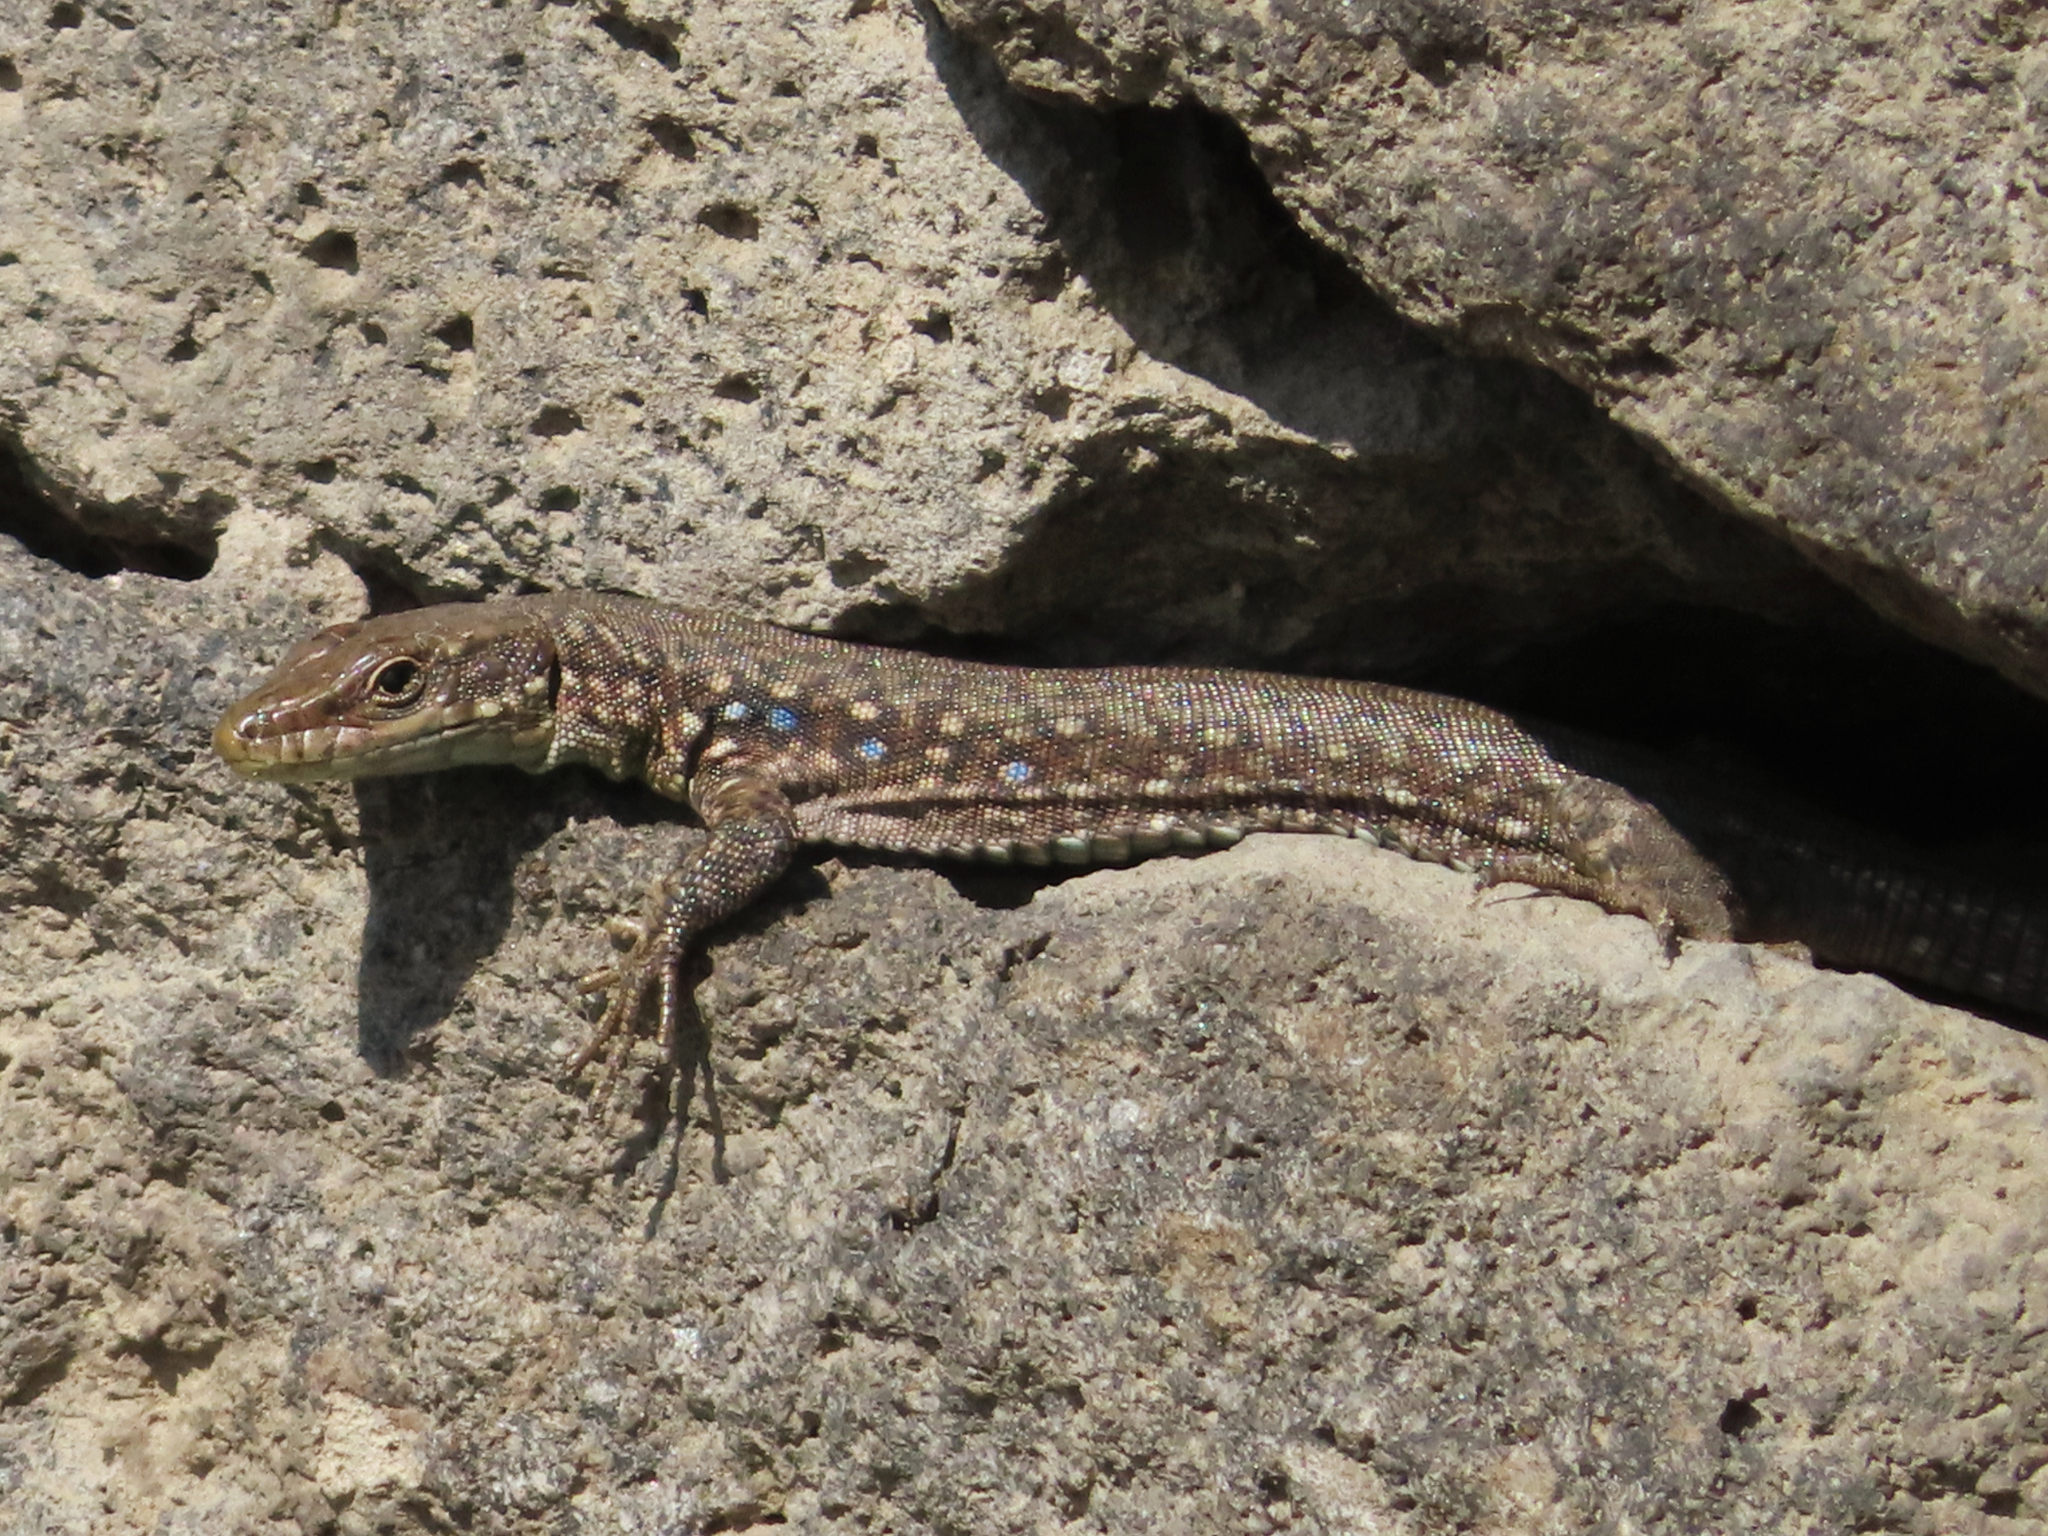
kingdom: Animalia
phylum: Chordata
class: Squamata
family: Lacertidae
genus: Darevskia
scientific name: Darevskia
